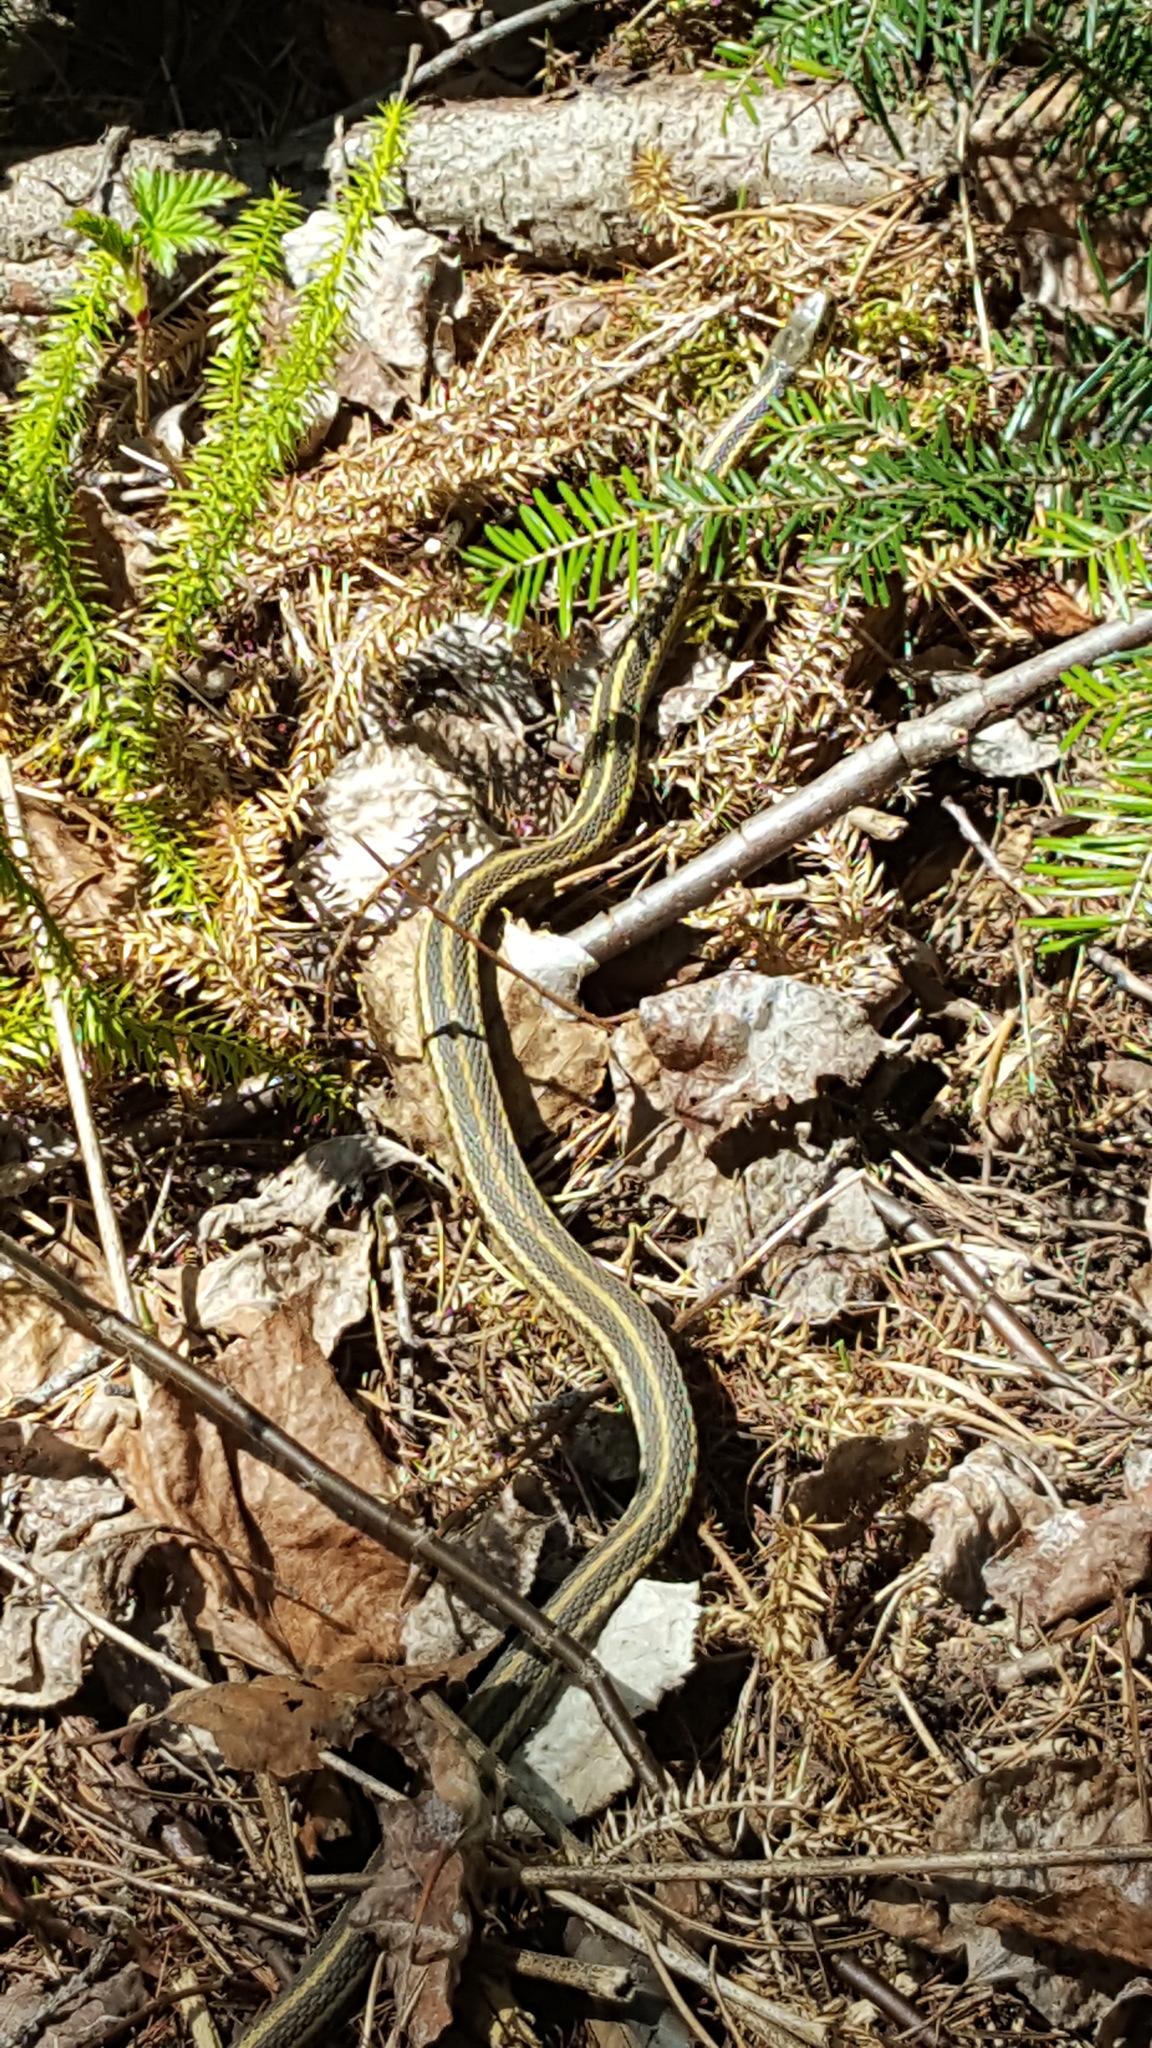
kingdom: Animalia
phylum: Chordata
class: Squamata
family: Colubridae
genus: Thamnophis
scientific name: Thamnophis sirtalis
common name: Common garter snake
